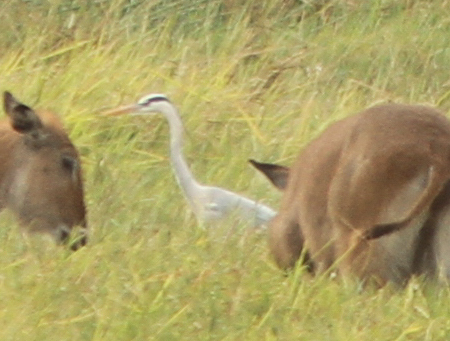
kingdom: Animalia
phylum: Chordata
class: Aves
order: Pelecaniformes
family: Ardeidae
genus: Ardea
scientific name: Ardea cinerea
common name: Grey heron
